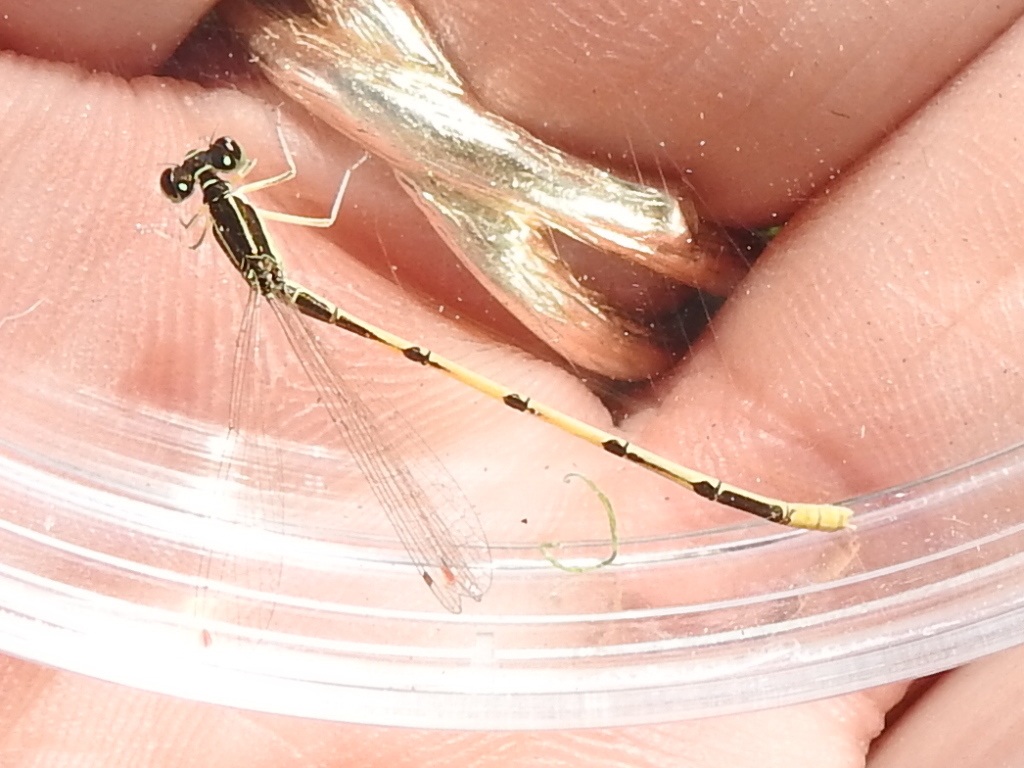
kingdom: Animalia
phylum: Arthropoda
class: Insecta
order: Odonata
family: Coenagrionidae
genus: Ischnura
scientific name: Ischnura hastata
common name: Citrine forktail
